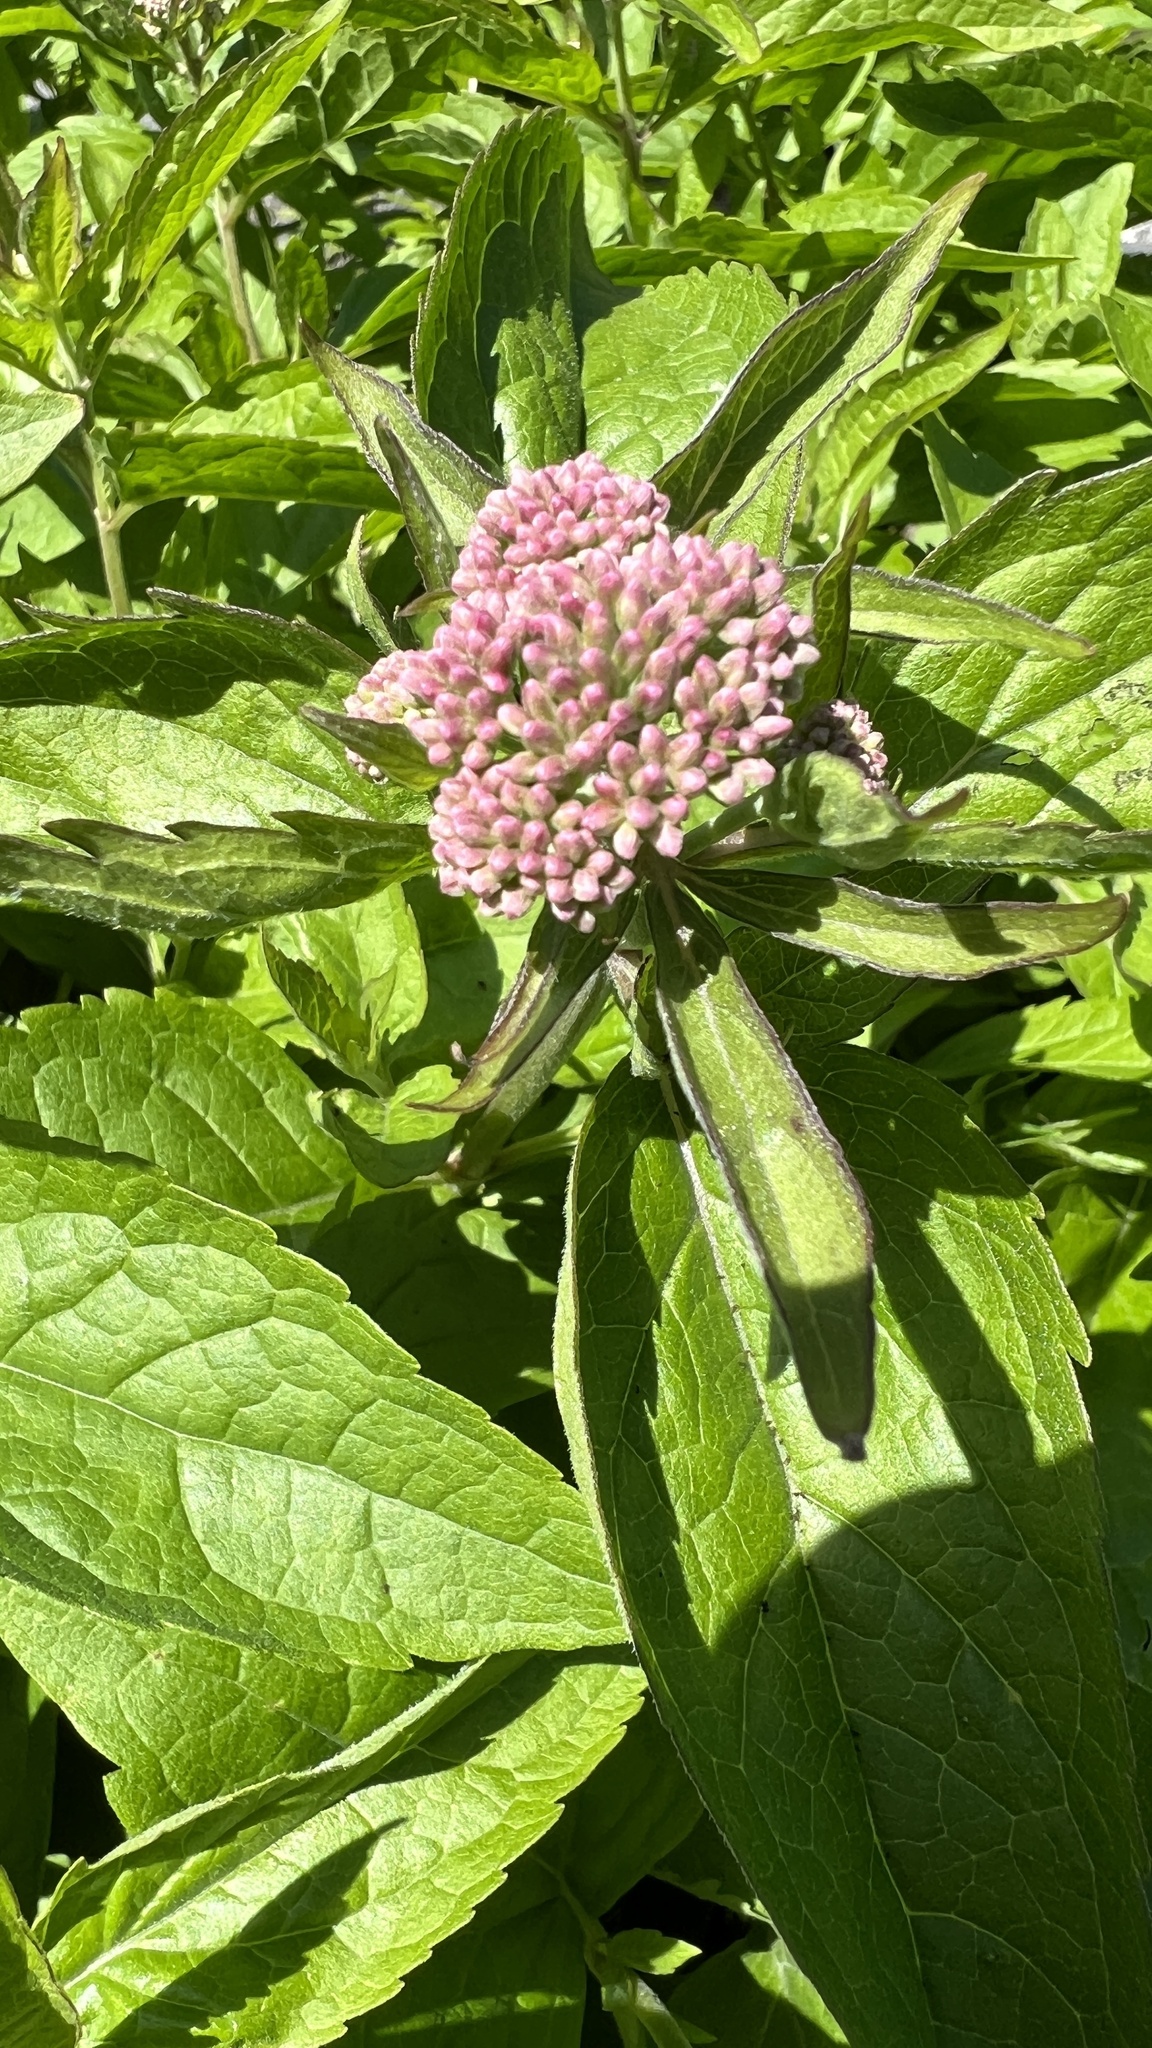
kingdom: Plantae
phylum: Tracheophyta
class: Magnoliopsida
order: Asterales
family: Asteraceae
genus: Eupatorium
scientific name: Eupatorium cannabinum
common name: Hemp-agrimony
